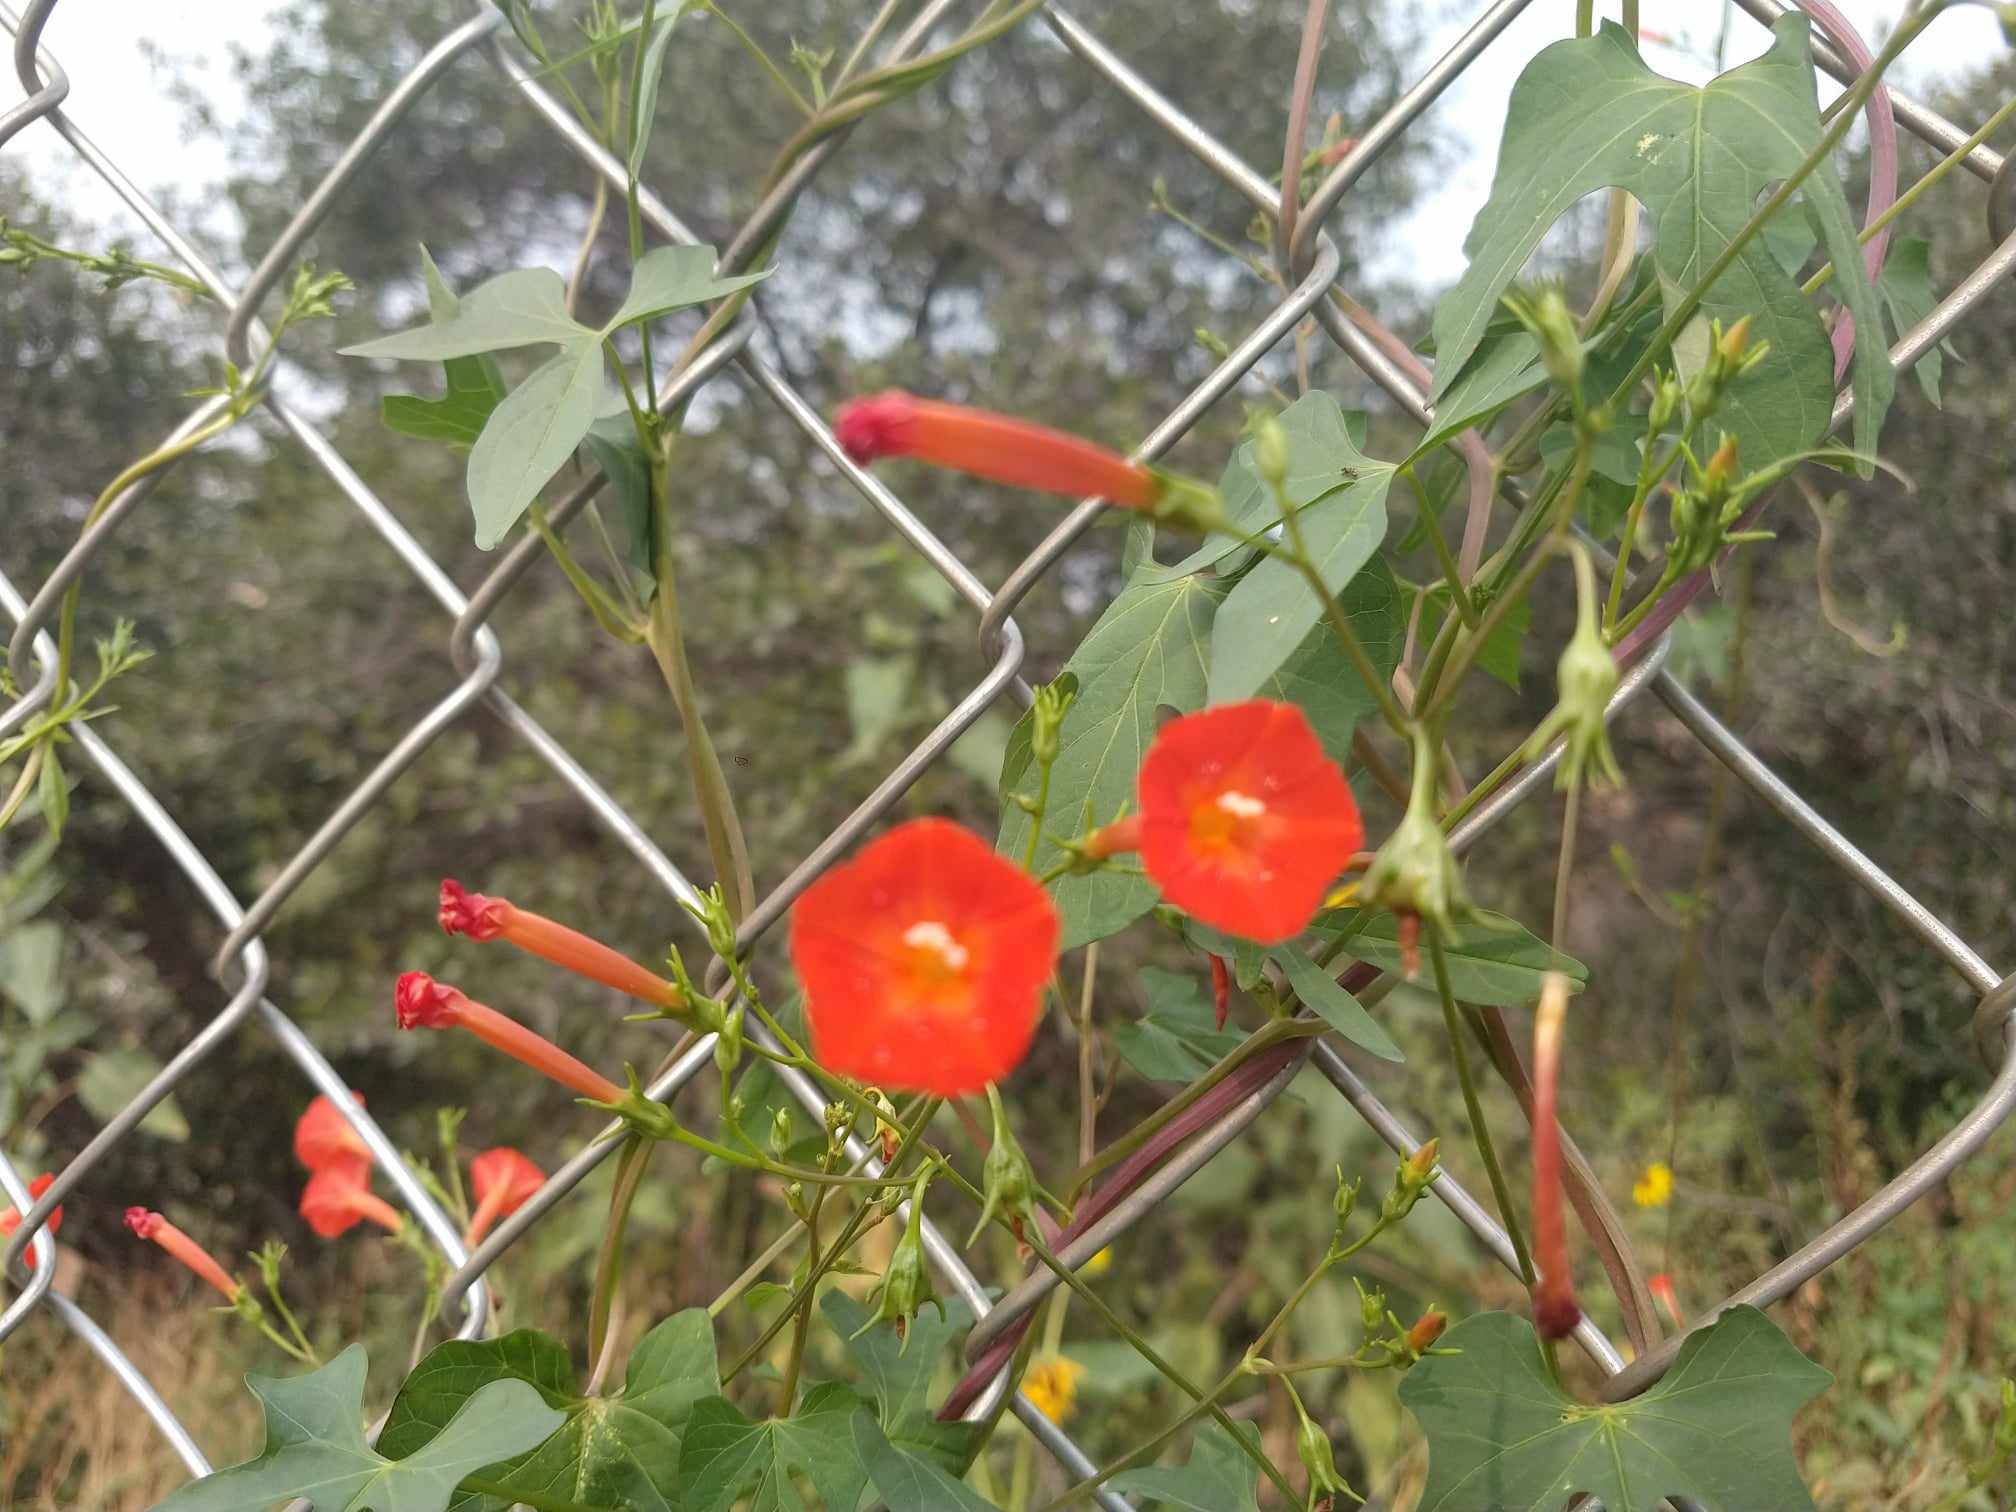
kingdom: Plantae
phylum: Tracheophyta
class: Magnoliopsida
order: Solanales
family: Convolvulaceae
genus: Ipomoea
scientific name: Ipomoea cristulata
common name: Trans-pecos morning-glory
